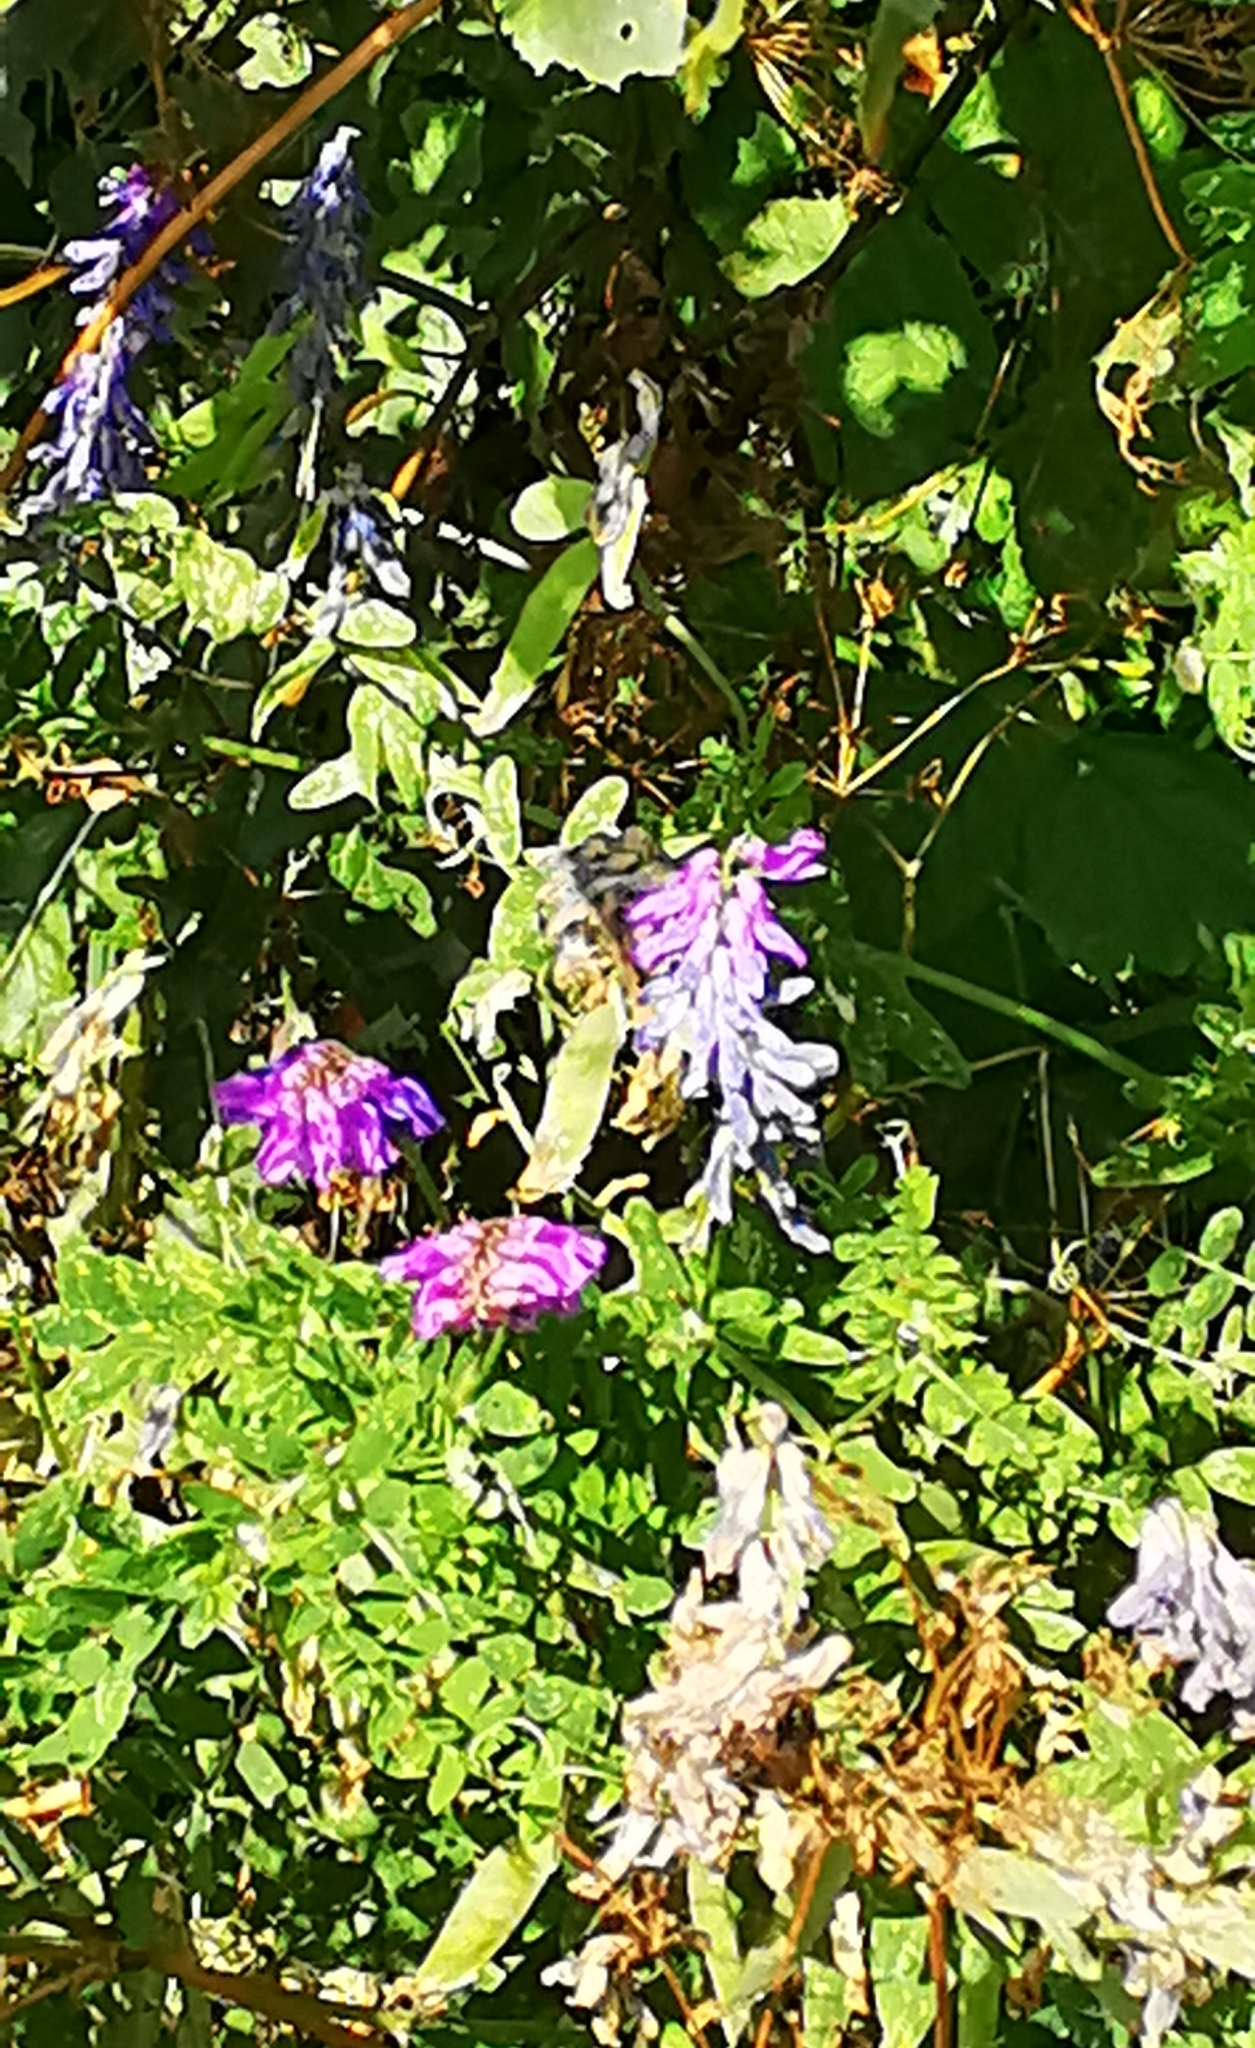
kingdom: Plantae
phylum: Tracheophyta
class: Magnoliopsida
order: Fabales
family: Fabaceae
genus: Vicia
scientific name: Vicia cracca
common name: Bird vetch
